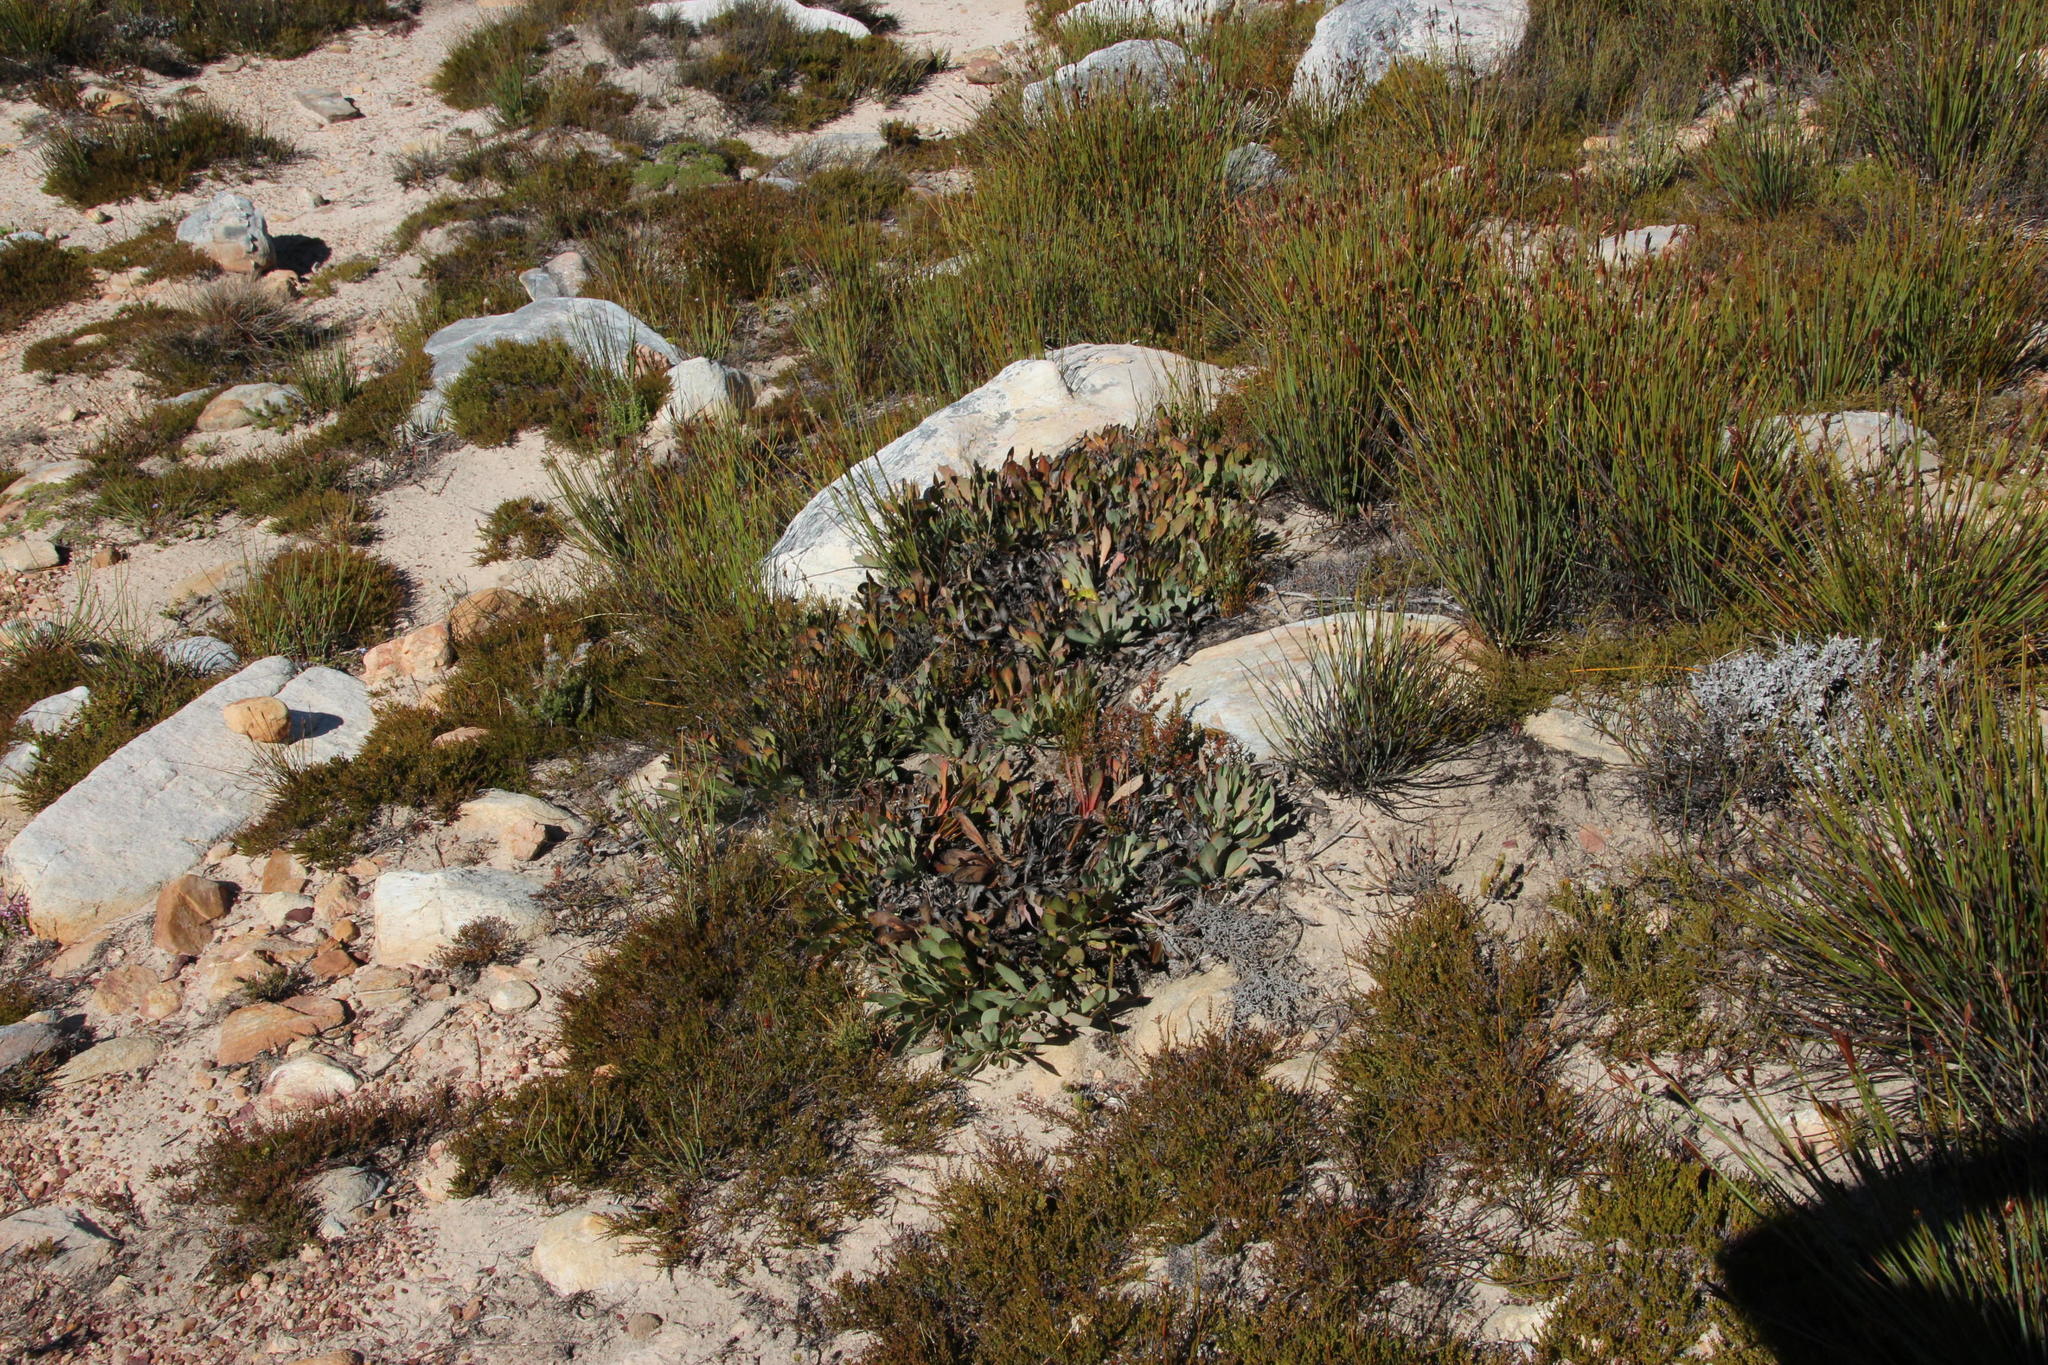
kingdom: Plantae
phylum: Tracheophyta
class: Magnoliopsida
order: Proteales
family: Proteaceae
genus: Protea
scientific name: Protea laevis
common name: Smooth-leaf sugarbush
